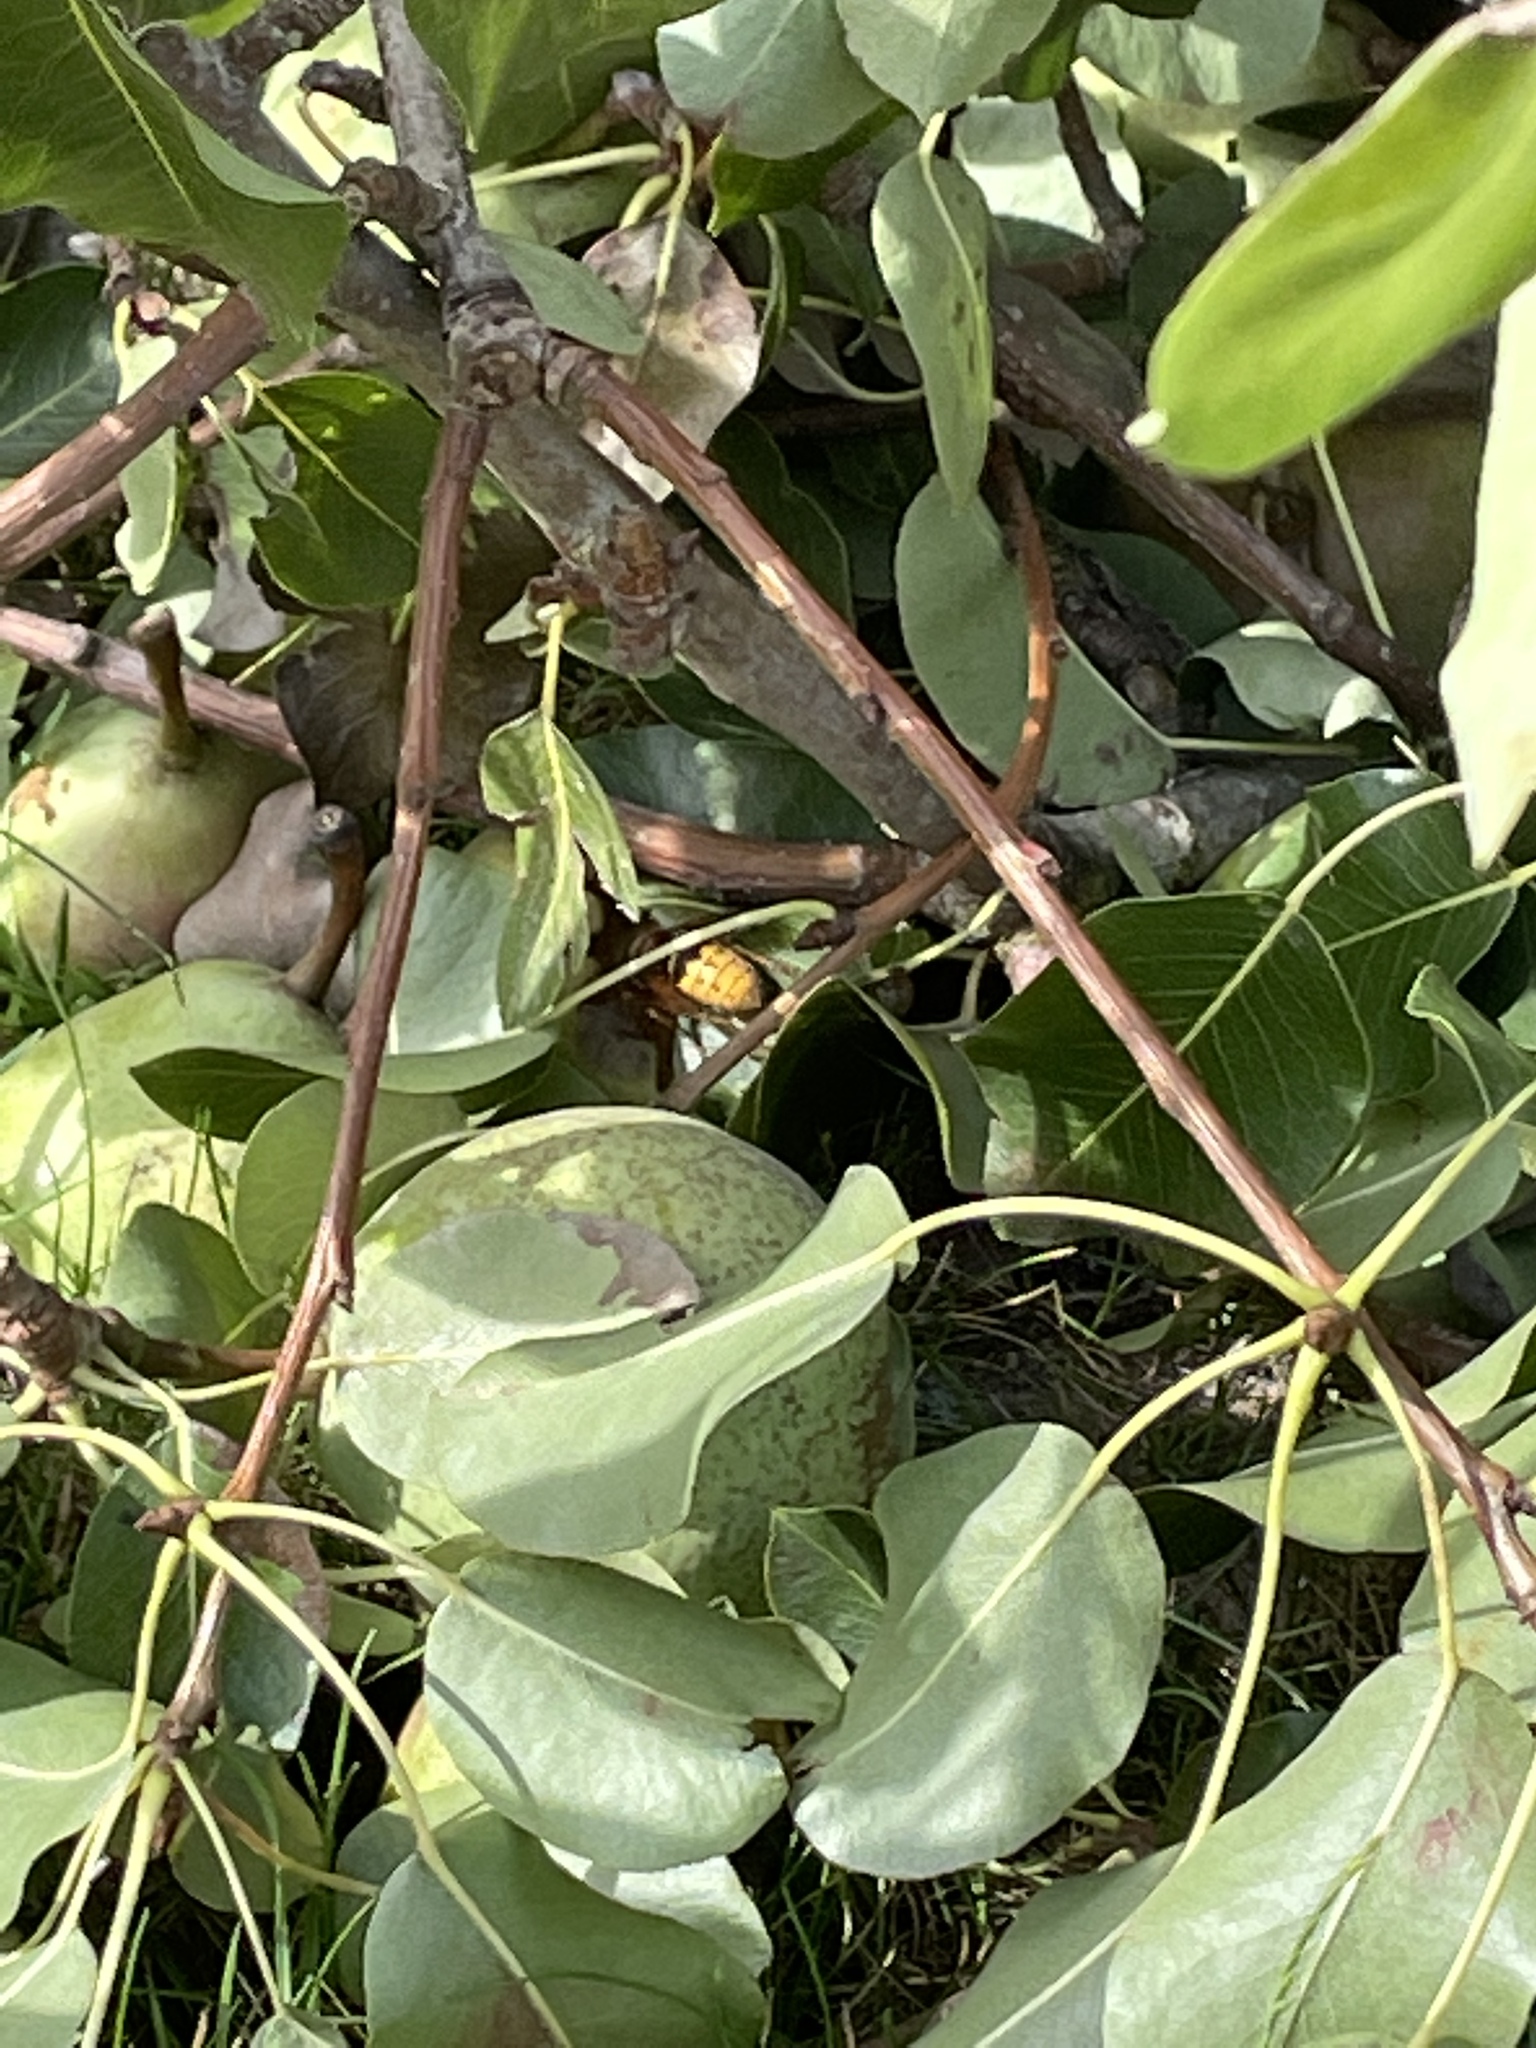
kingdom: Animalia
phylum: Arthropoda
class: Insecta
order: Hymenoptera
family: Vespidae
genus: Vespa
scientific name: Vespa crabro
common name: Hornet
